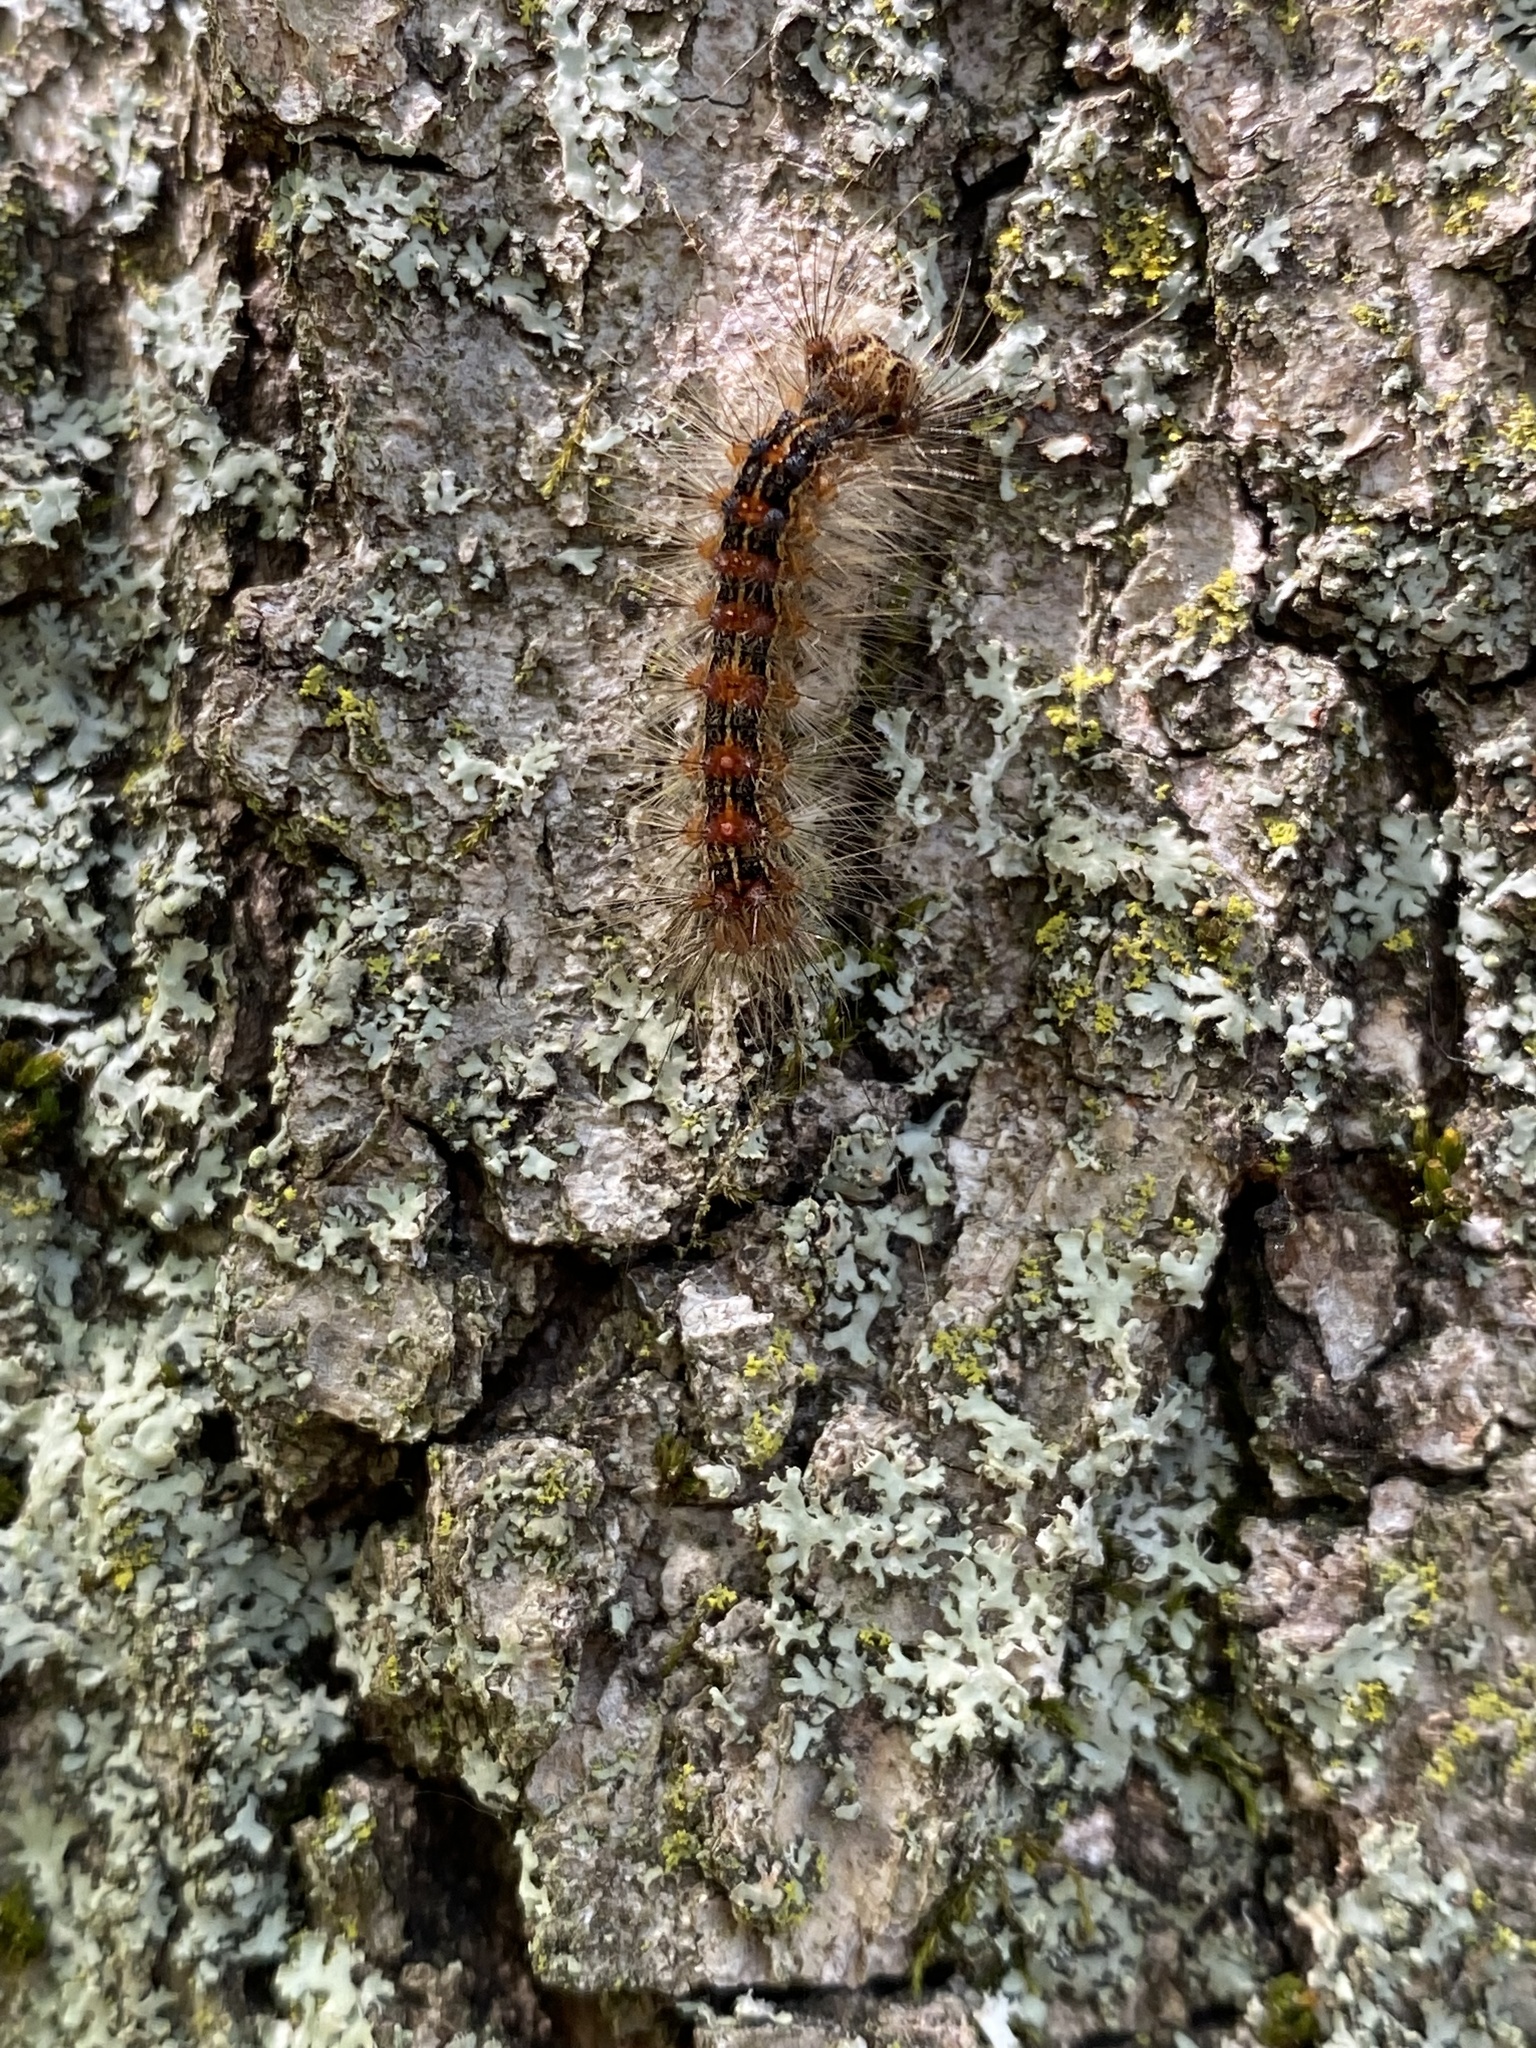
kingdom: Animalia
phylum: Arthropoda
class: Insecta
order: Lepidoptera
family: Erebidae
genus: Lymantria
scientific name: Lymantria dispar
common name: Gypsy moth
